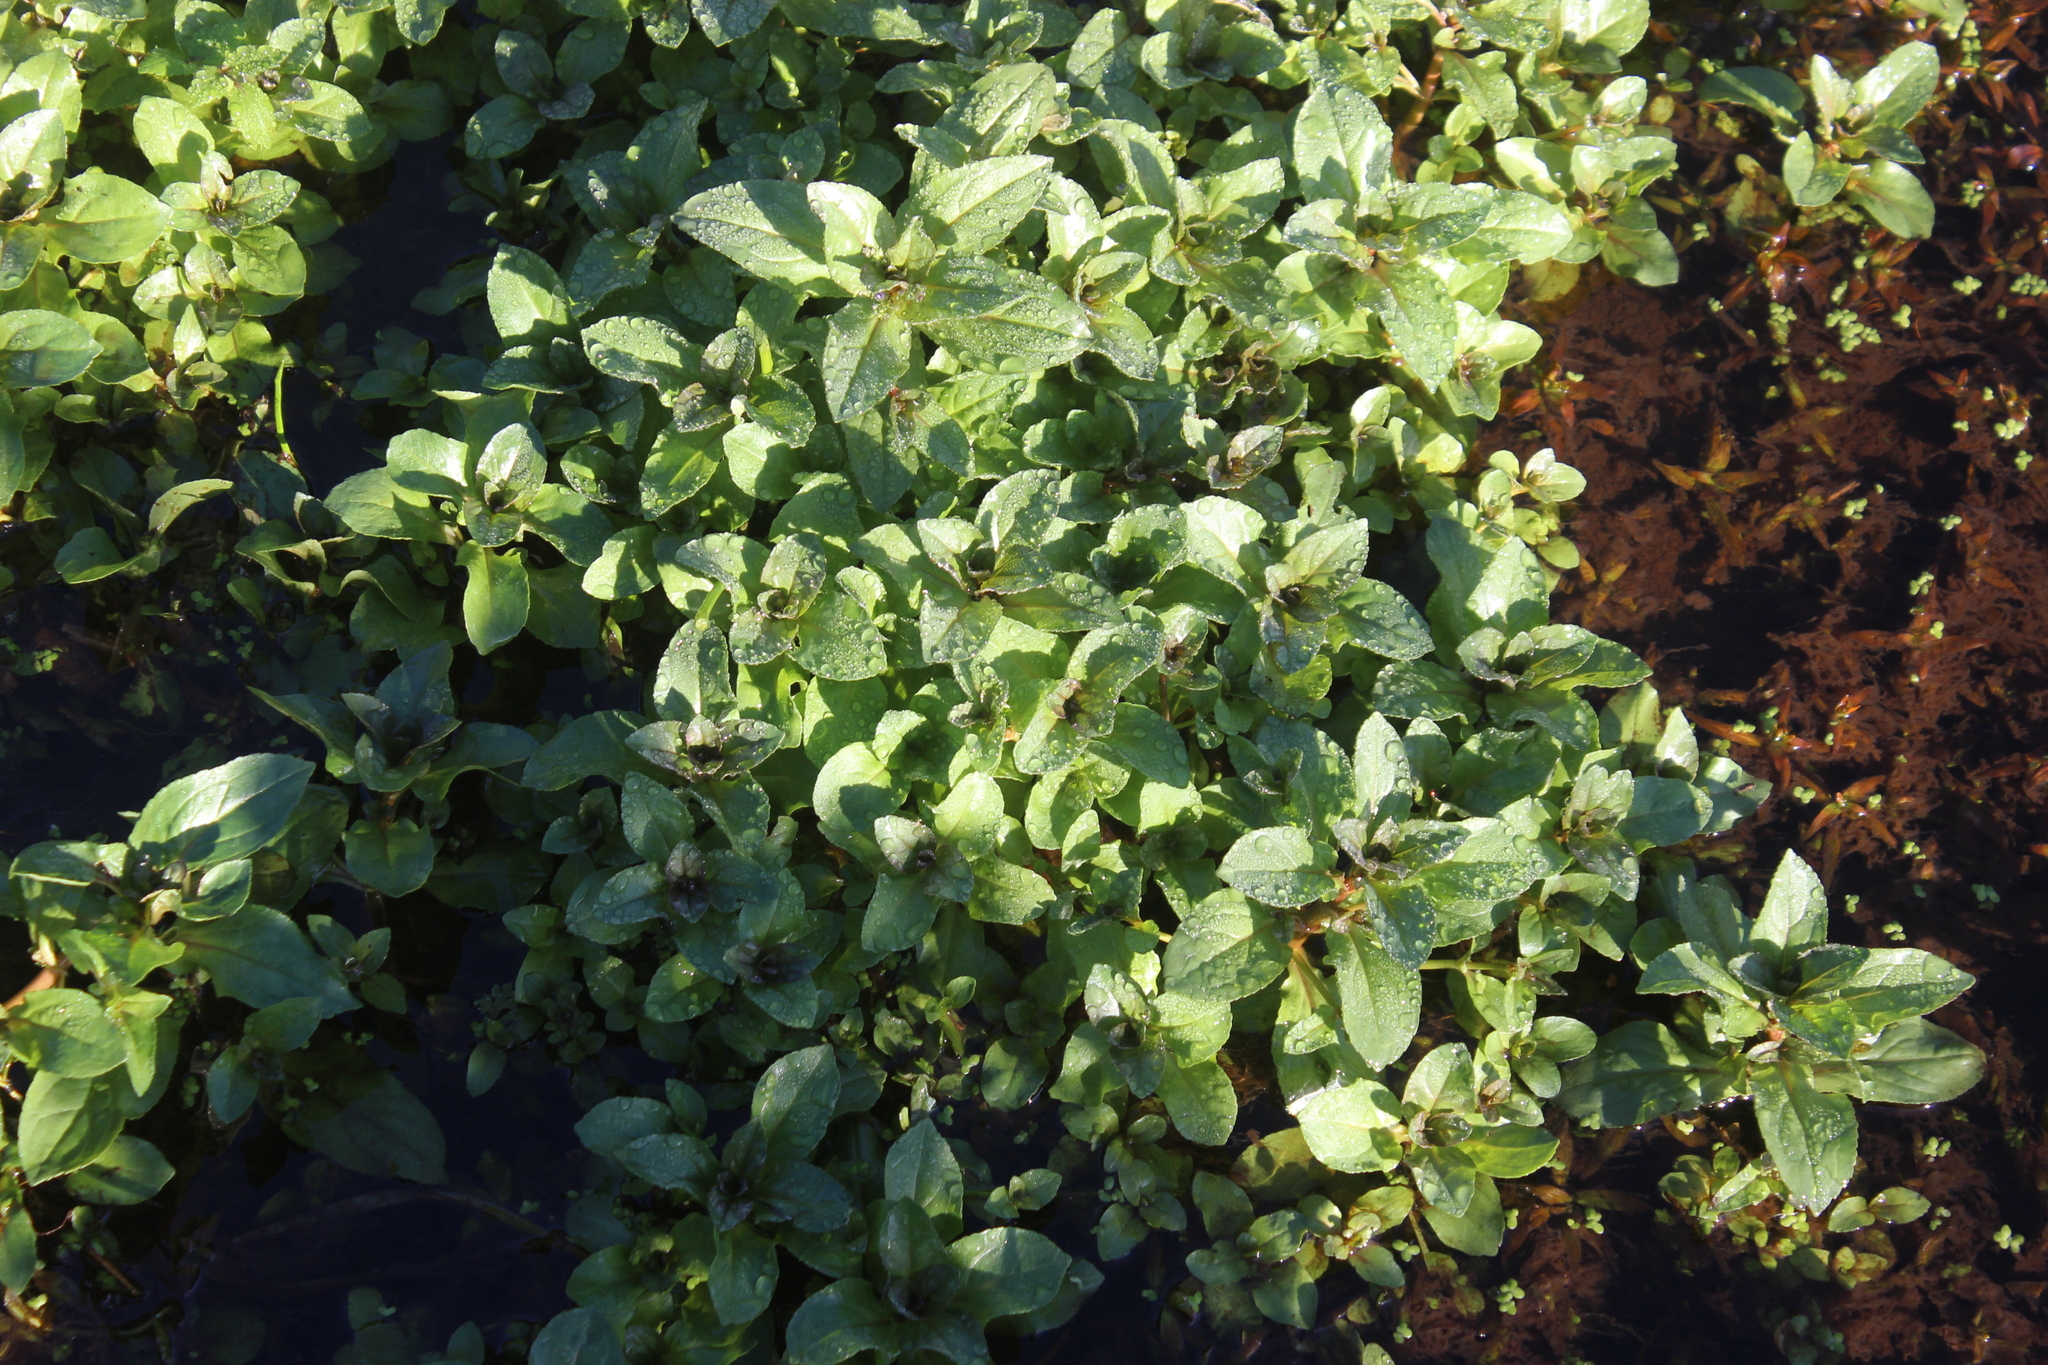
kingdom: Plantae
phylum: Tracheophyta
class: Magnoliopsida
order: Lamiales
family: Plantaginaceae
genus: Veronica
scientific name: Veronica anagallis-aquatica
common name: Water speedwell
